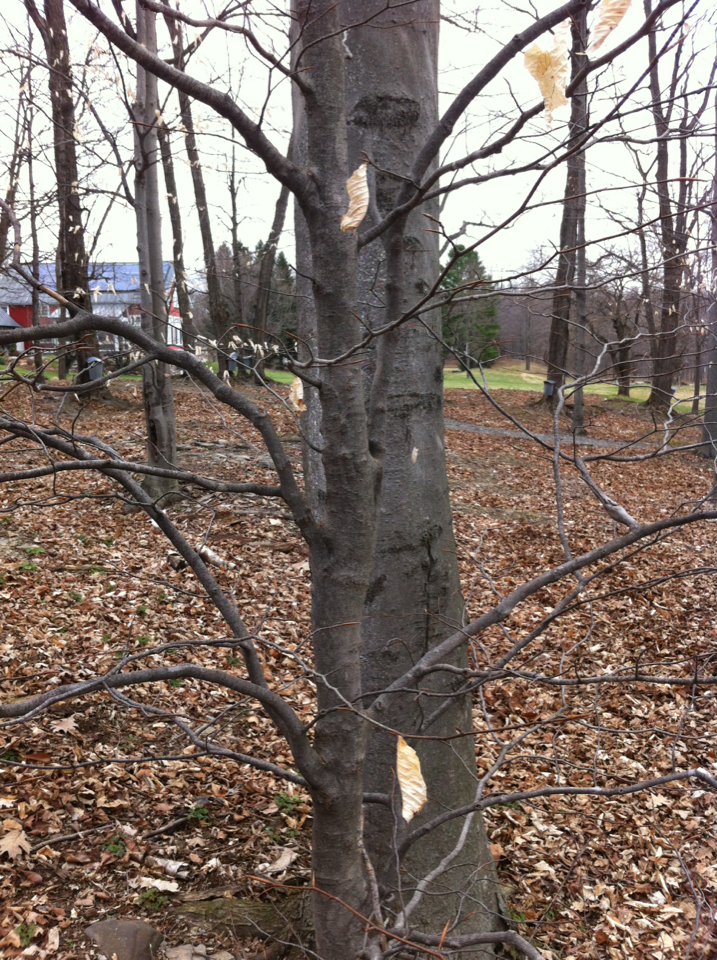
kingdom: Plantae
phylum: Tracheophyta
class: Magnoliopsida
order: Fagales
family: Fagaceae
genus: Fagus
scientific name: Fagus grandifolia
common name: American beech
